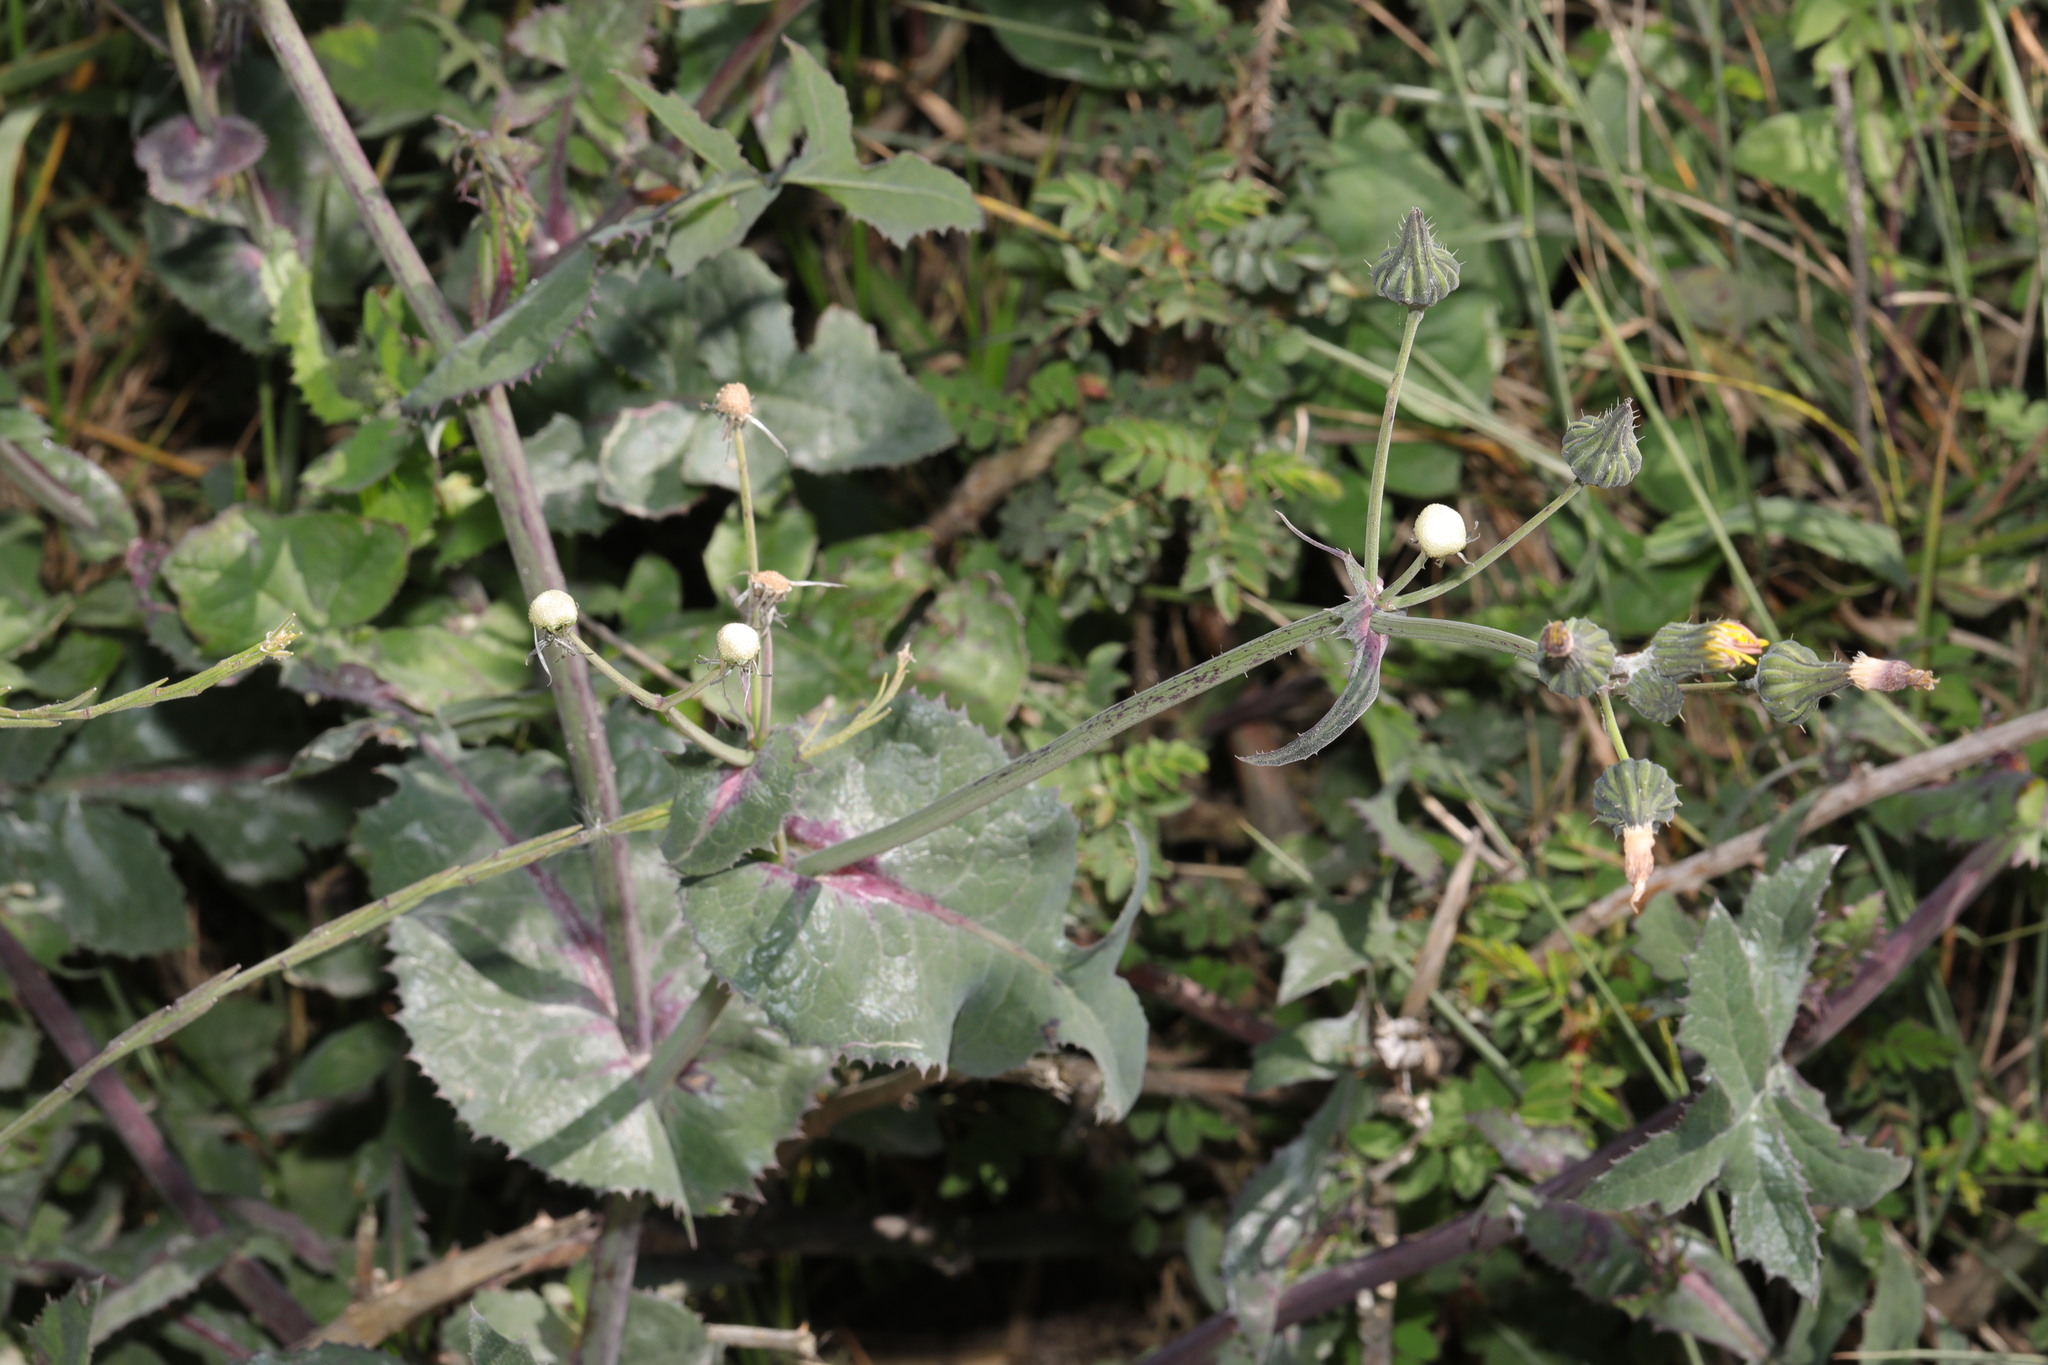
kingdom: Plantae
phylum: Tracheophyta
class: Magnoliopsida
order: Asterales
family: Asteraceae
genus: Sonchus
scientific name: Sonchus oleraceus
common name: Common sowthistle
